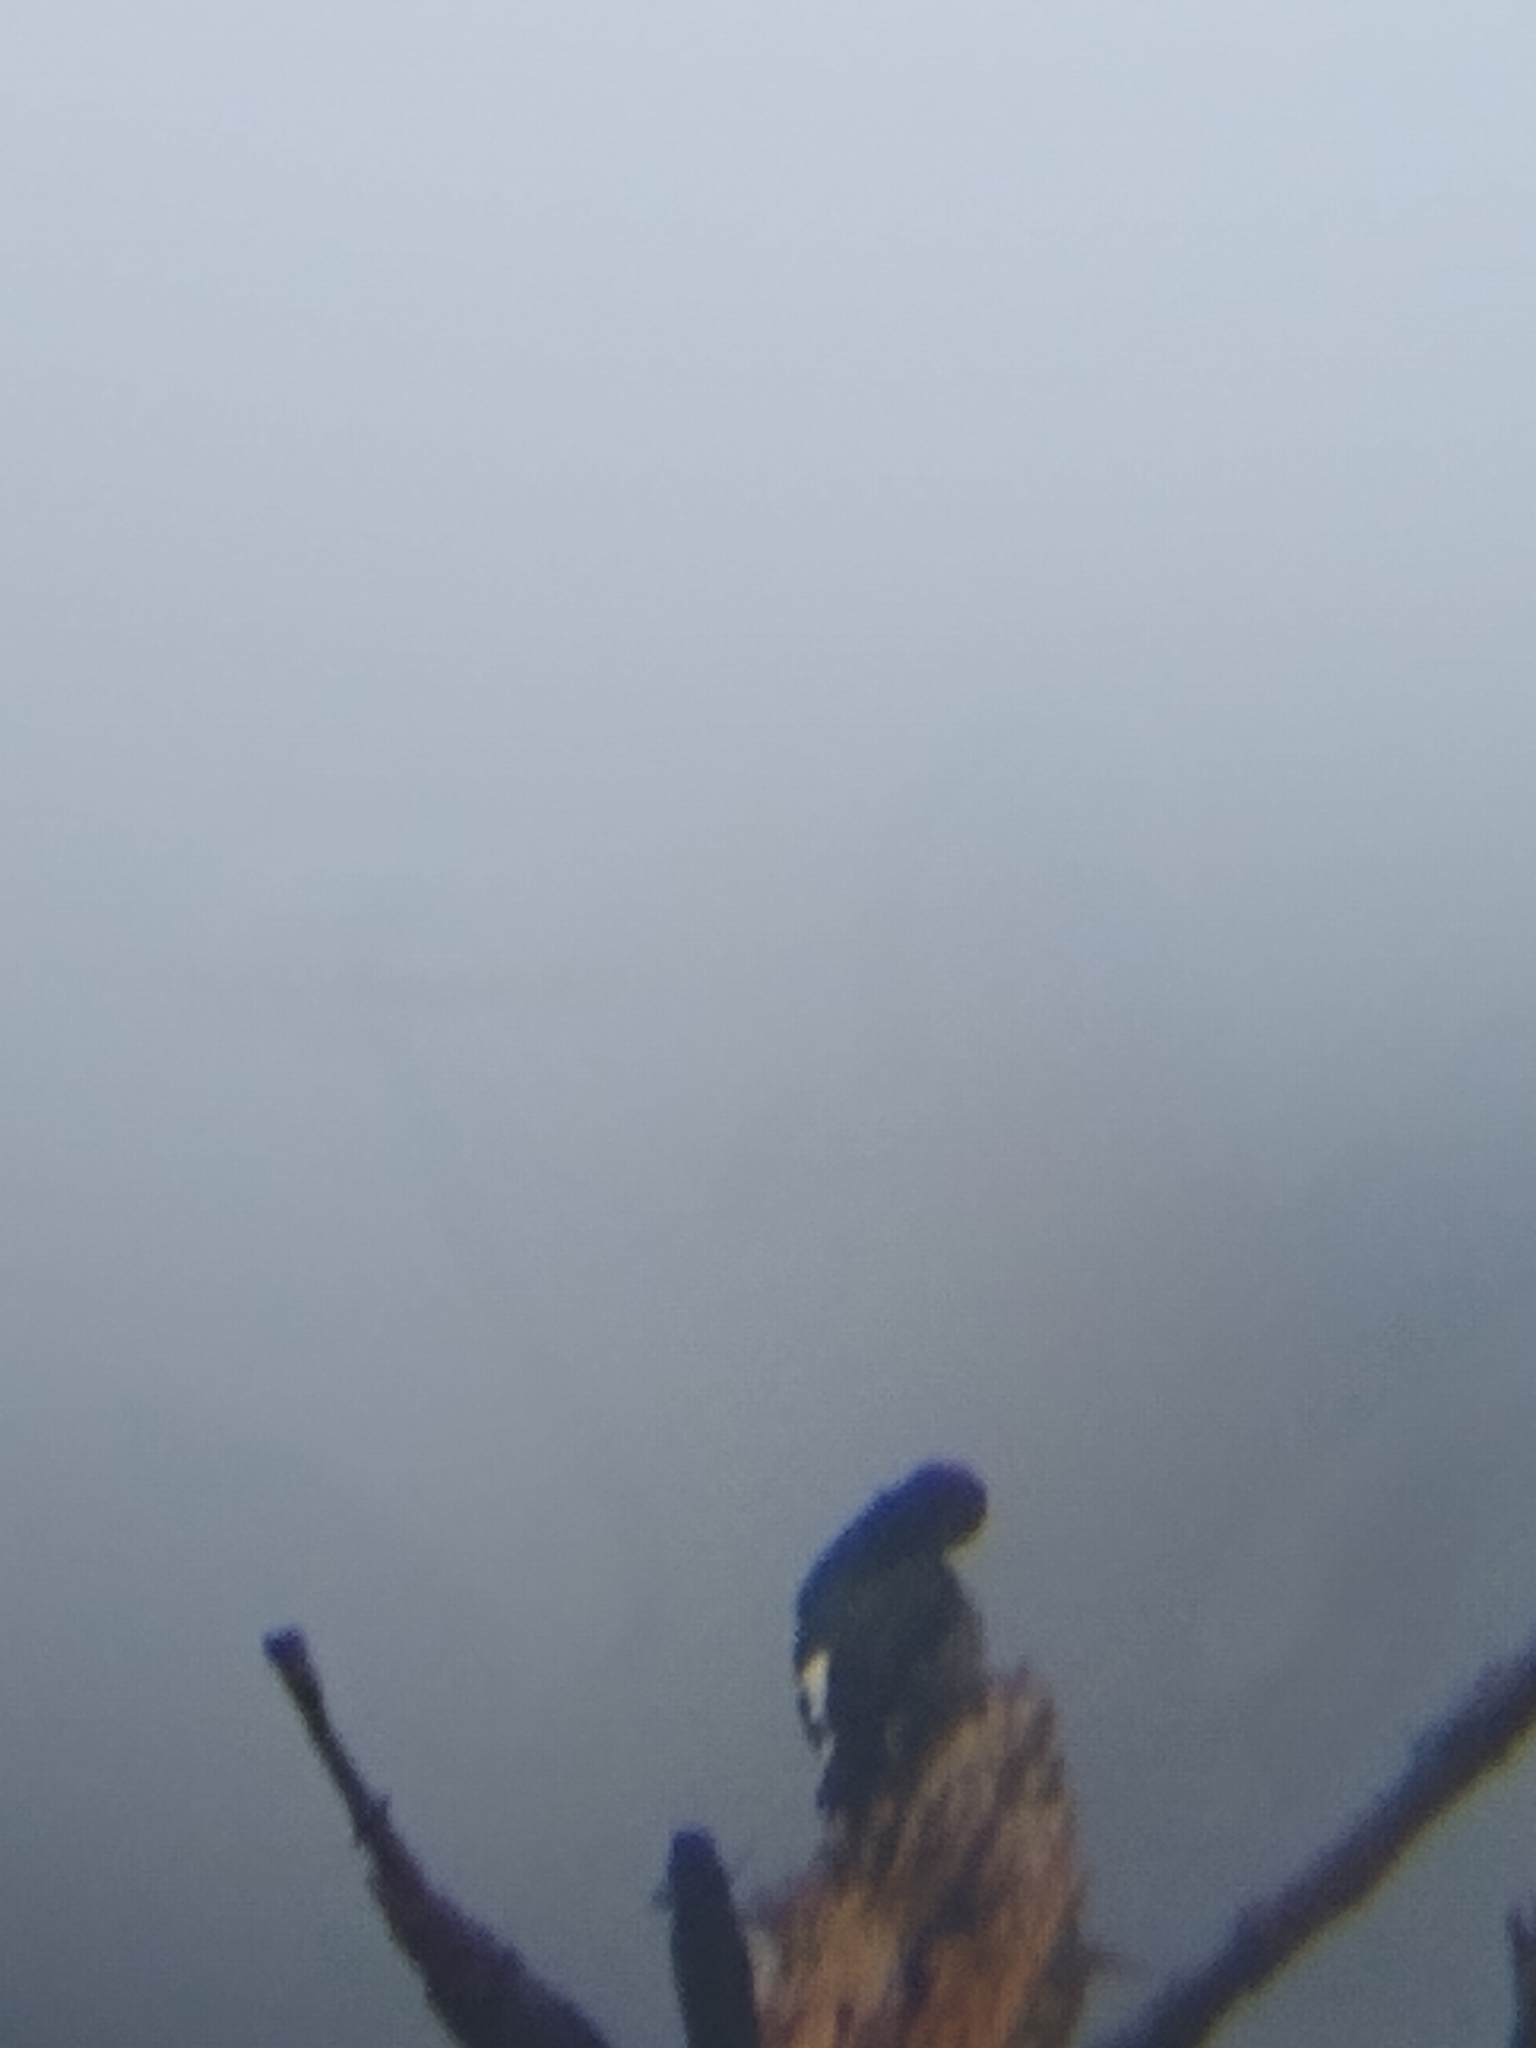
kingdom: Animalia
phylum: Chordata
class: Aves
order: Piciformes
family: Picidae
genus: Melanerpes
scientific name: Melanerpes formicivorus
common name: Acorn woodpecker
